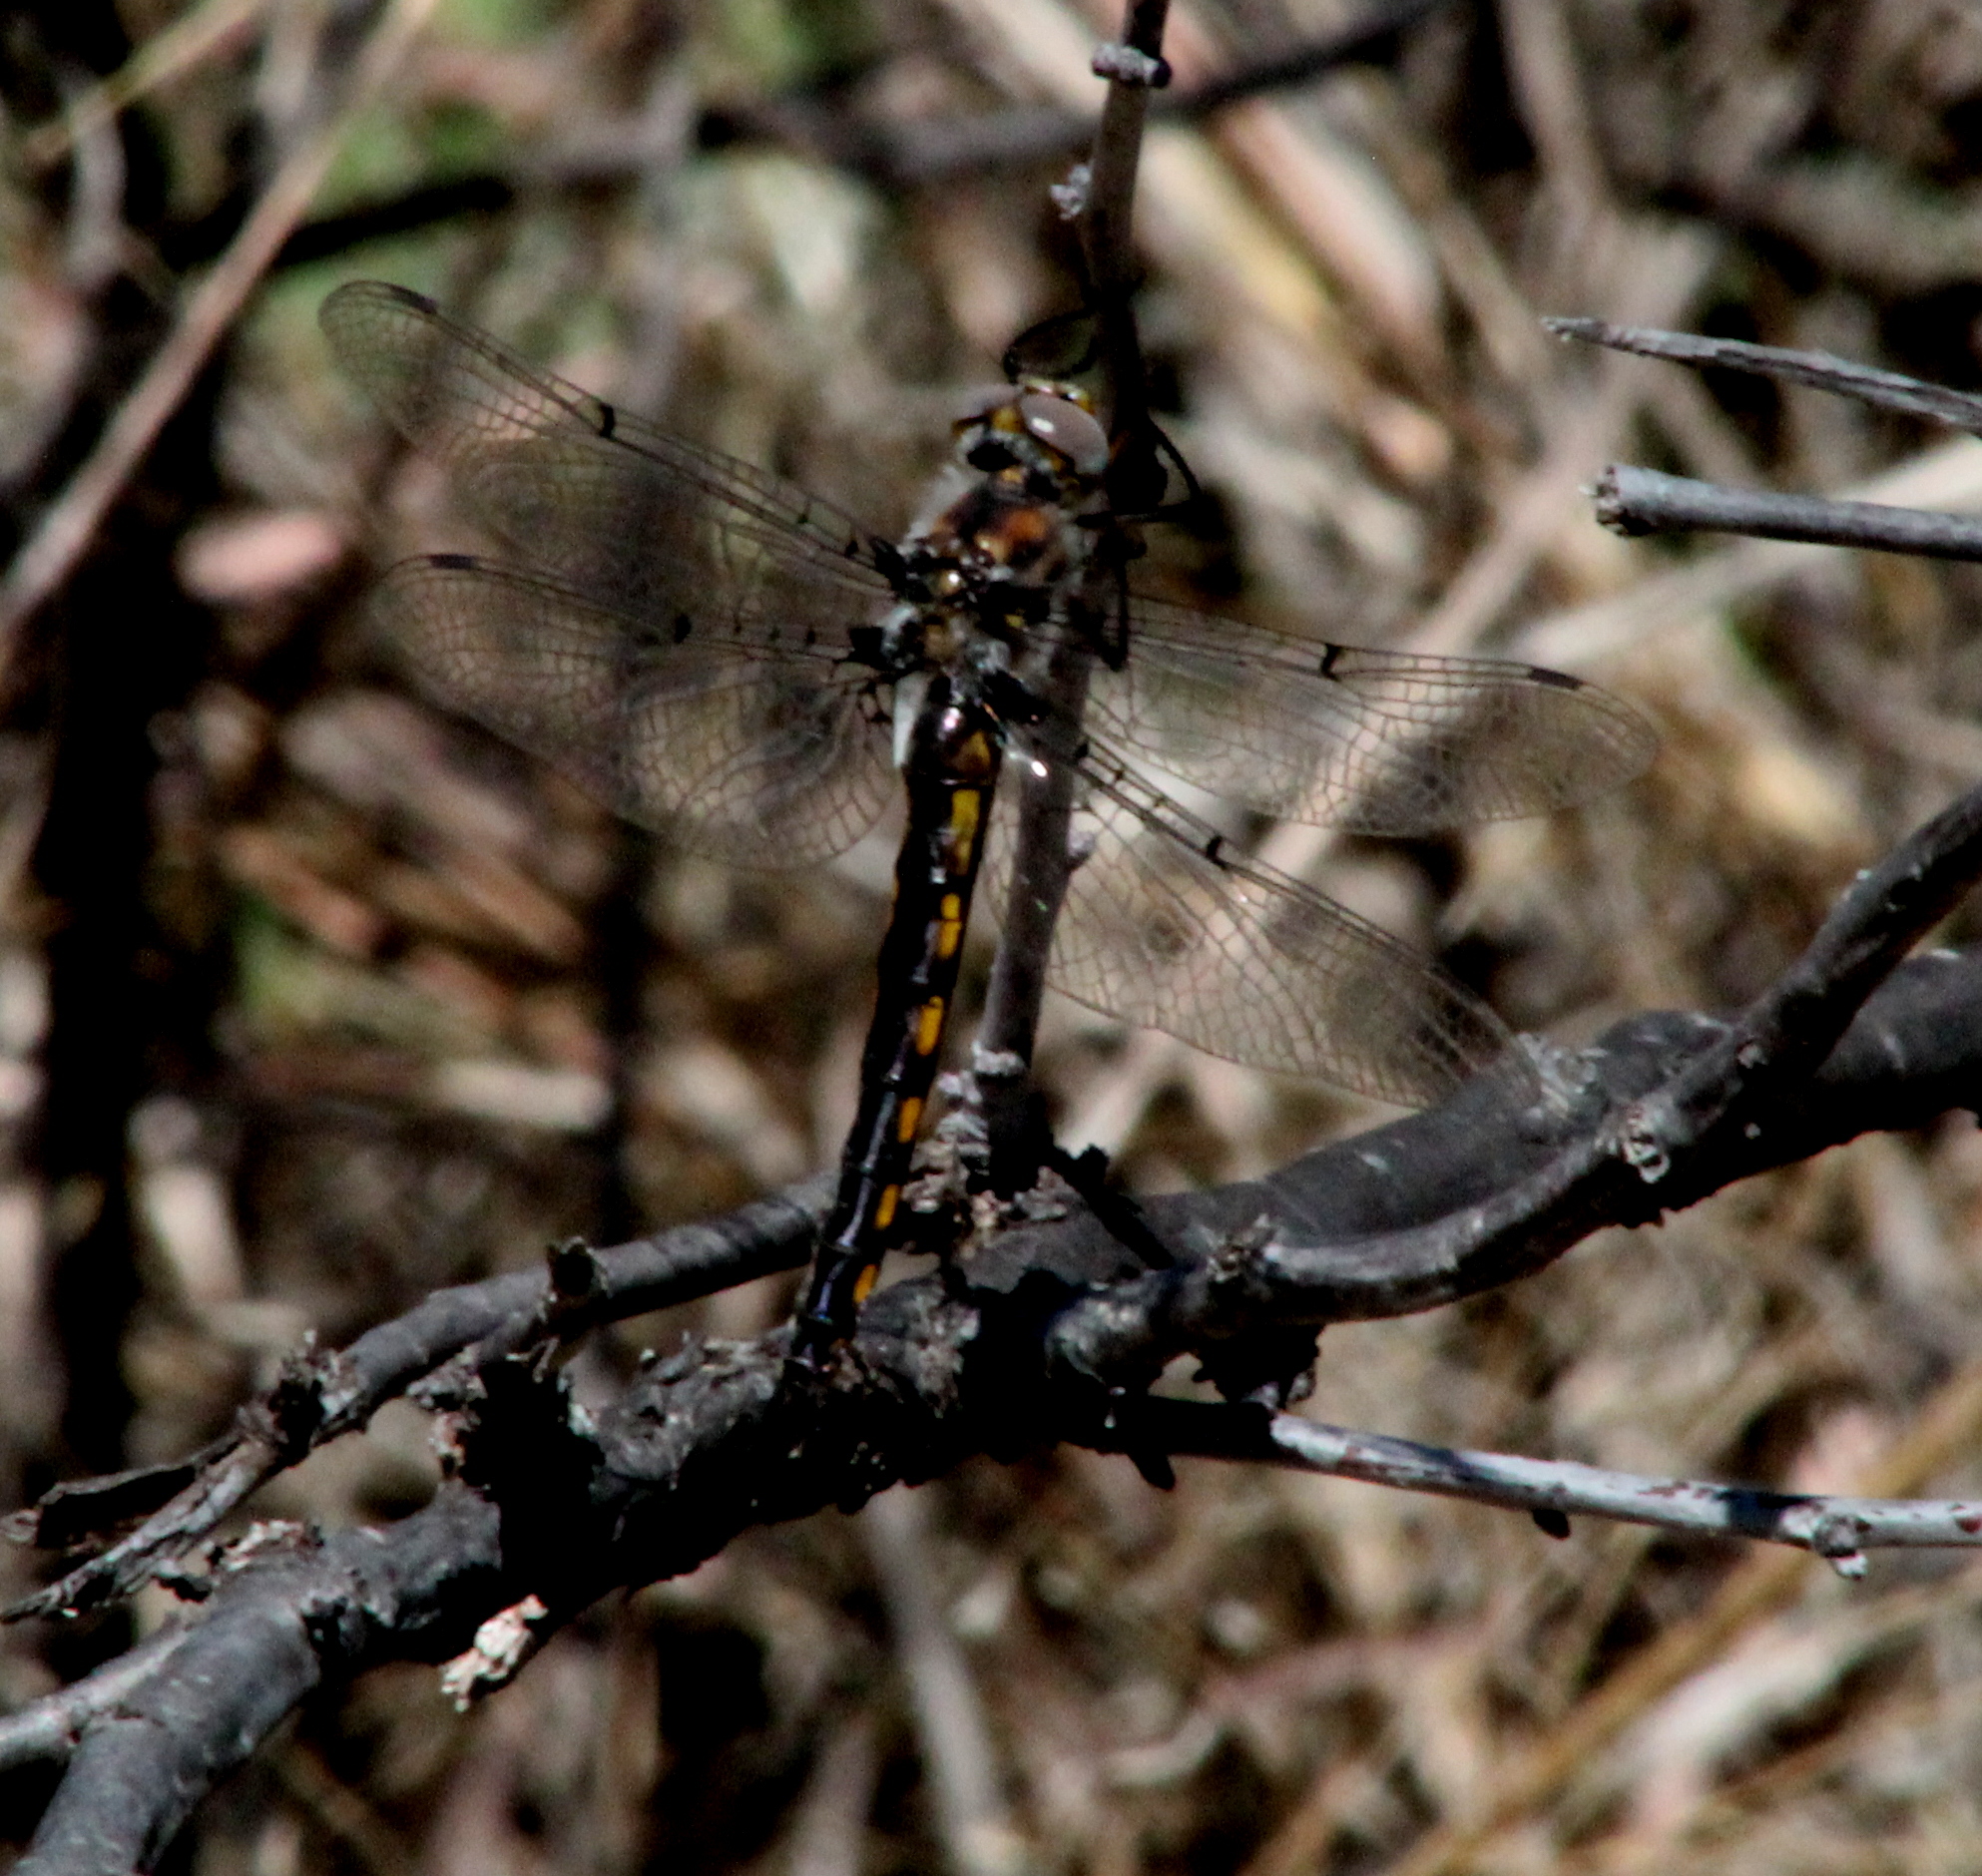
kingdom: Animalia
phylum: Arthropoda
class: Insecta
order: Odonata
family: Corduliidae
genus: Epitheca
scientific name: Epitheca petechialis
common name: Dot-winged baskettail
